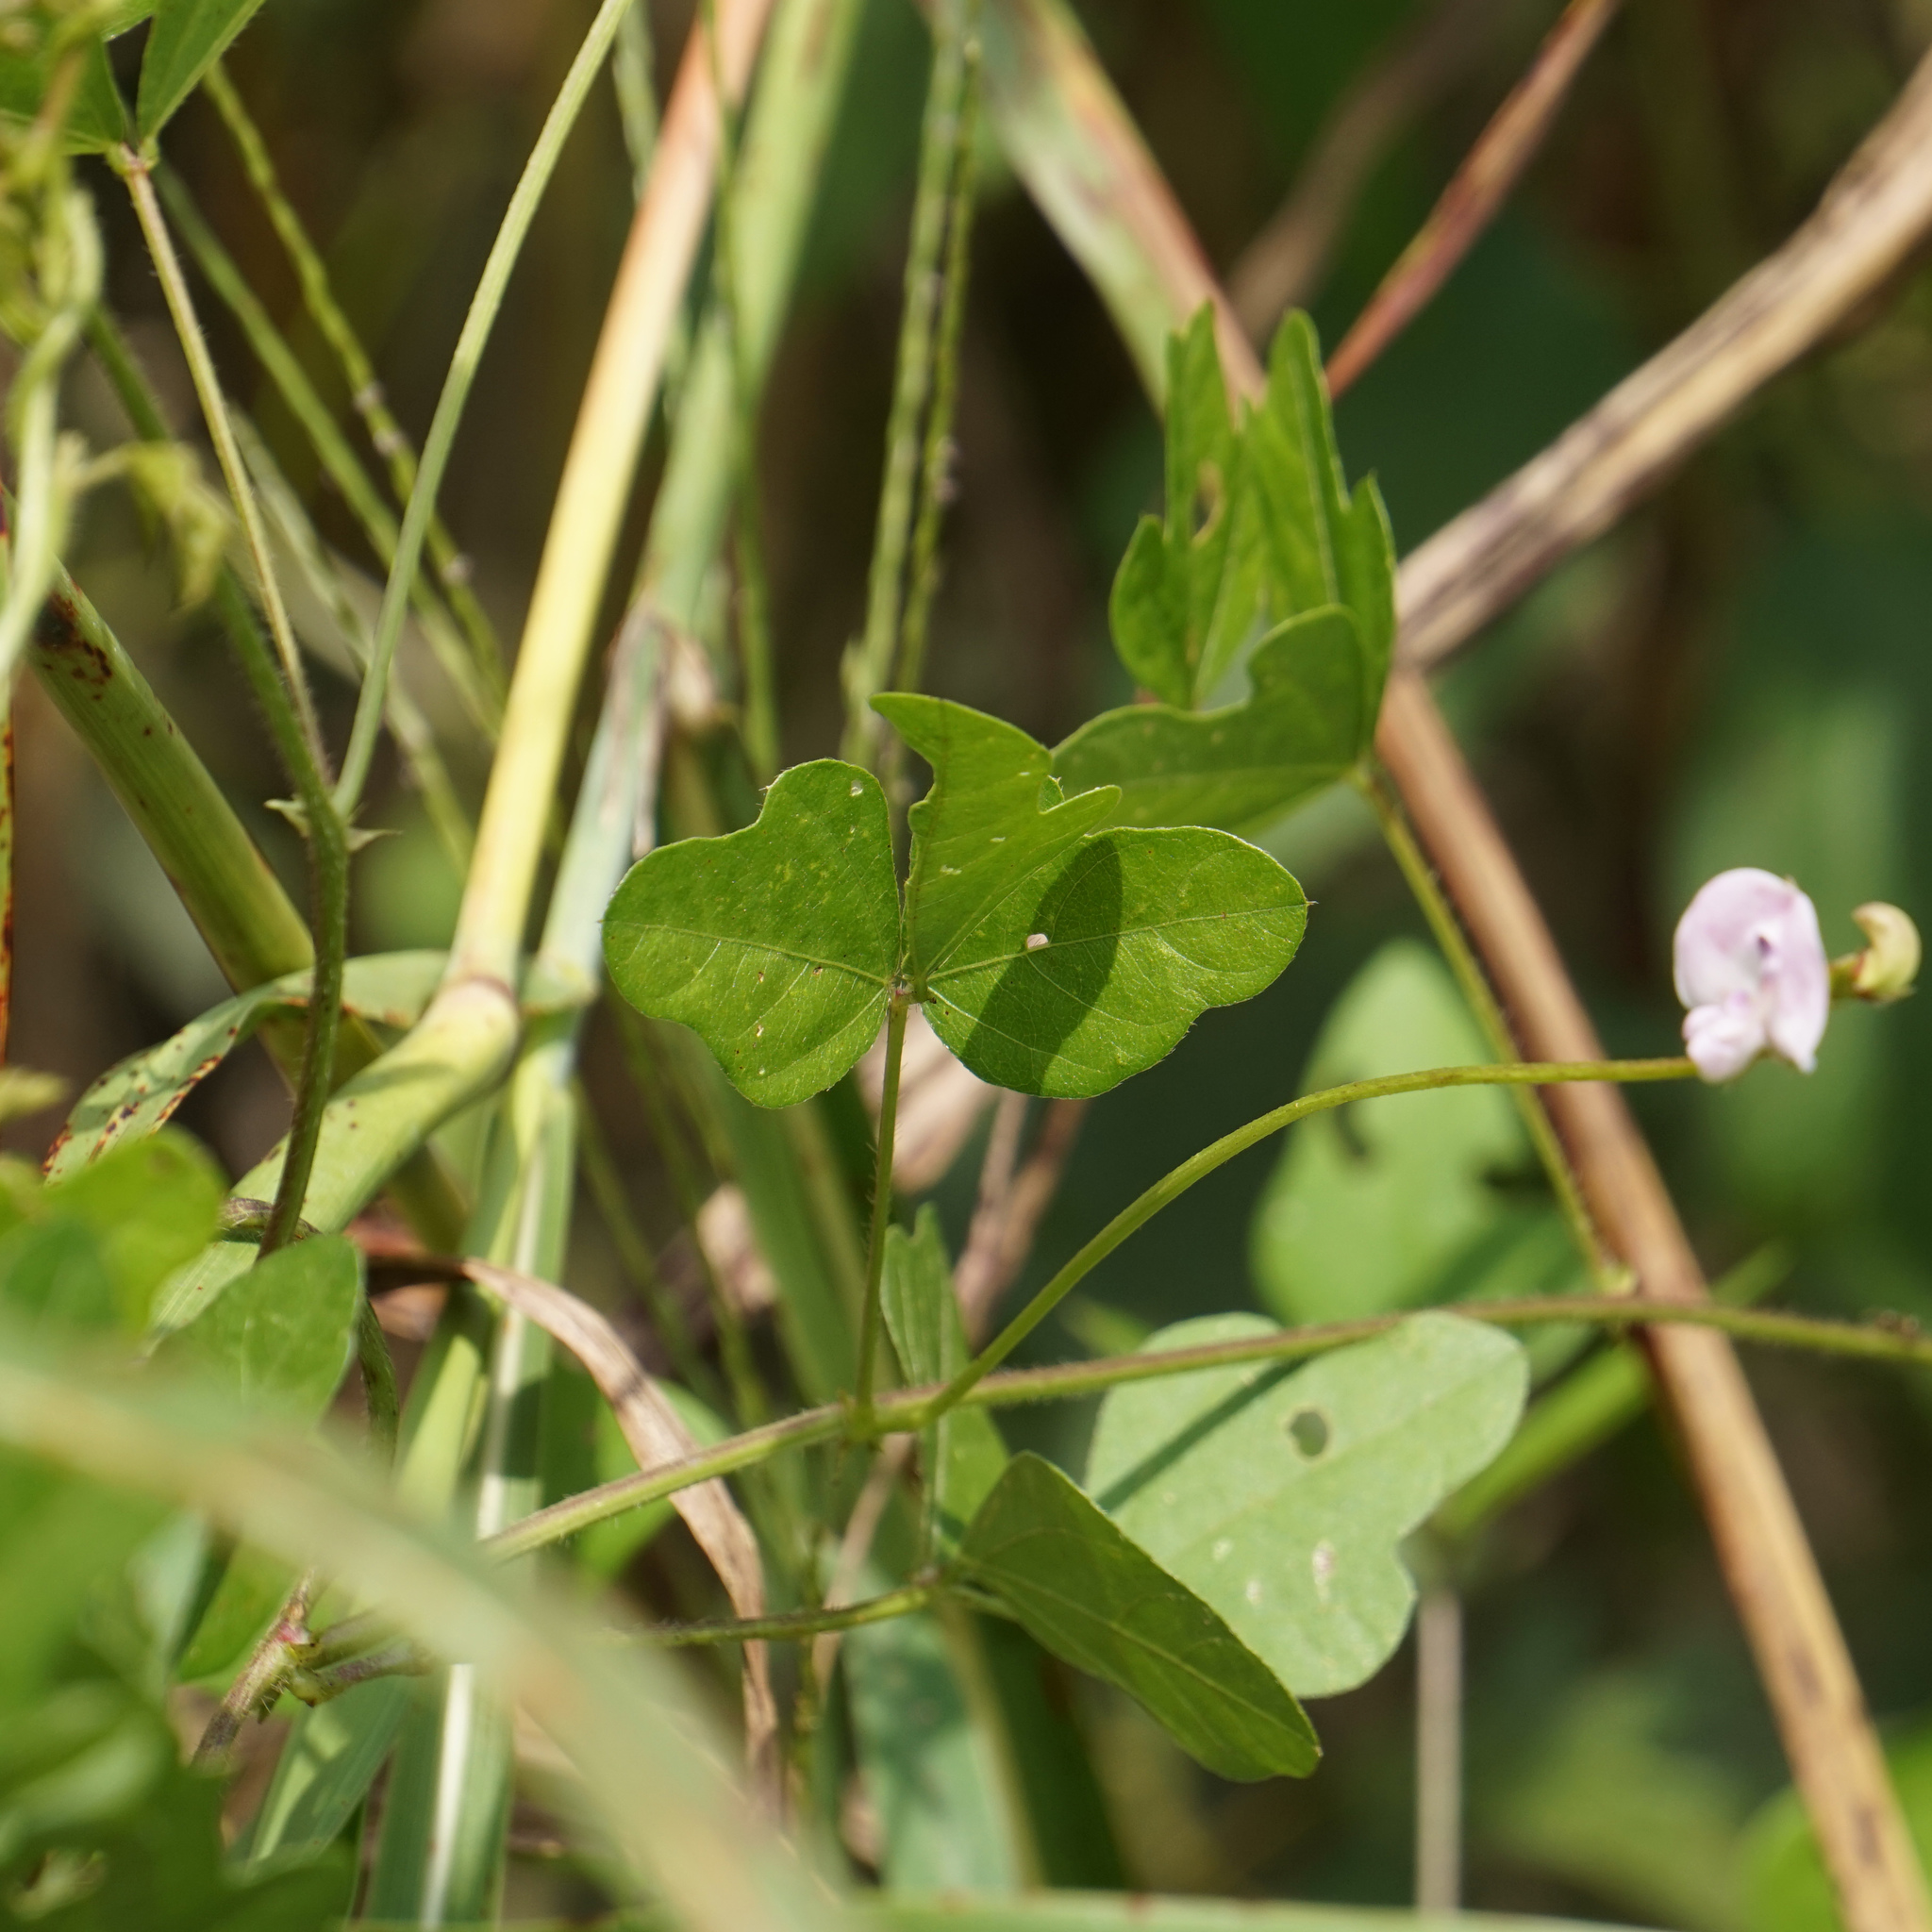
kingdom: Plantae
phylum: Tracheophyta
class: Magnoliopsida
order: Fabales
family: Fabaceae
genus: Strophostyles
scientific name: Strophostyles helvola
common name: Trailing wild bean
